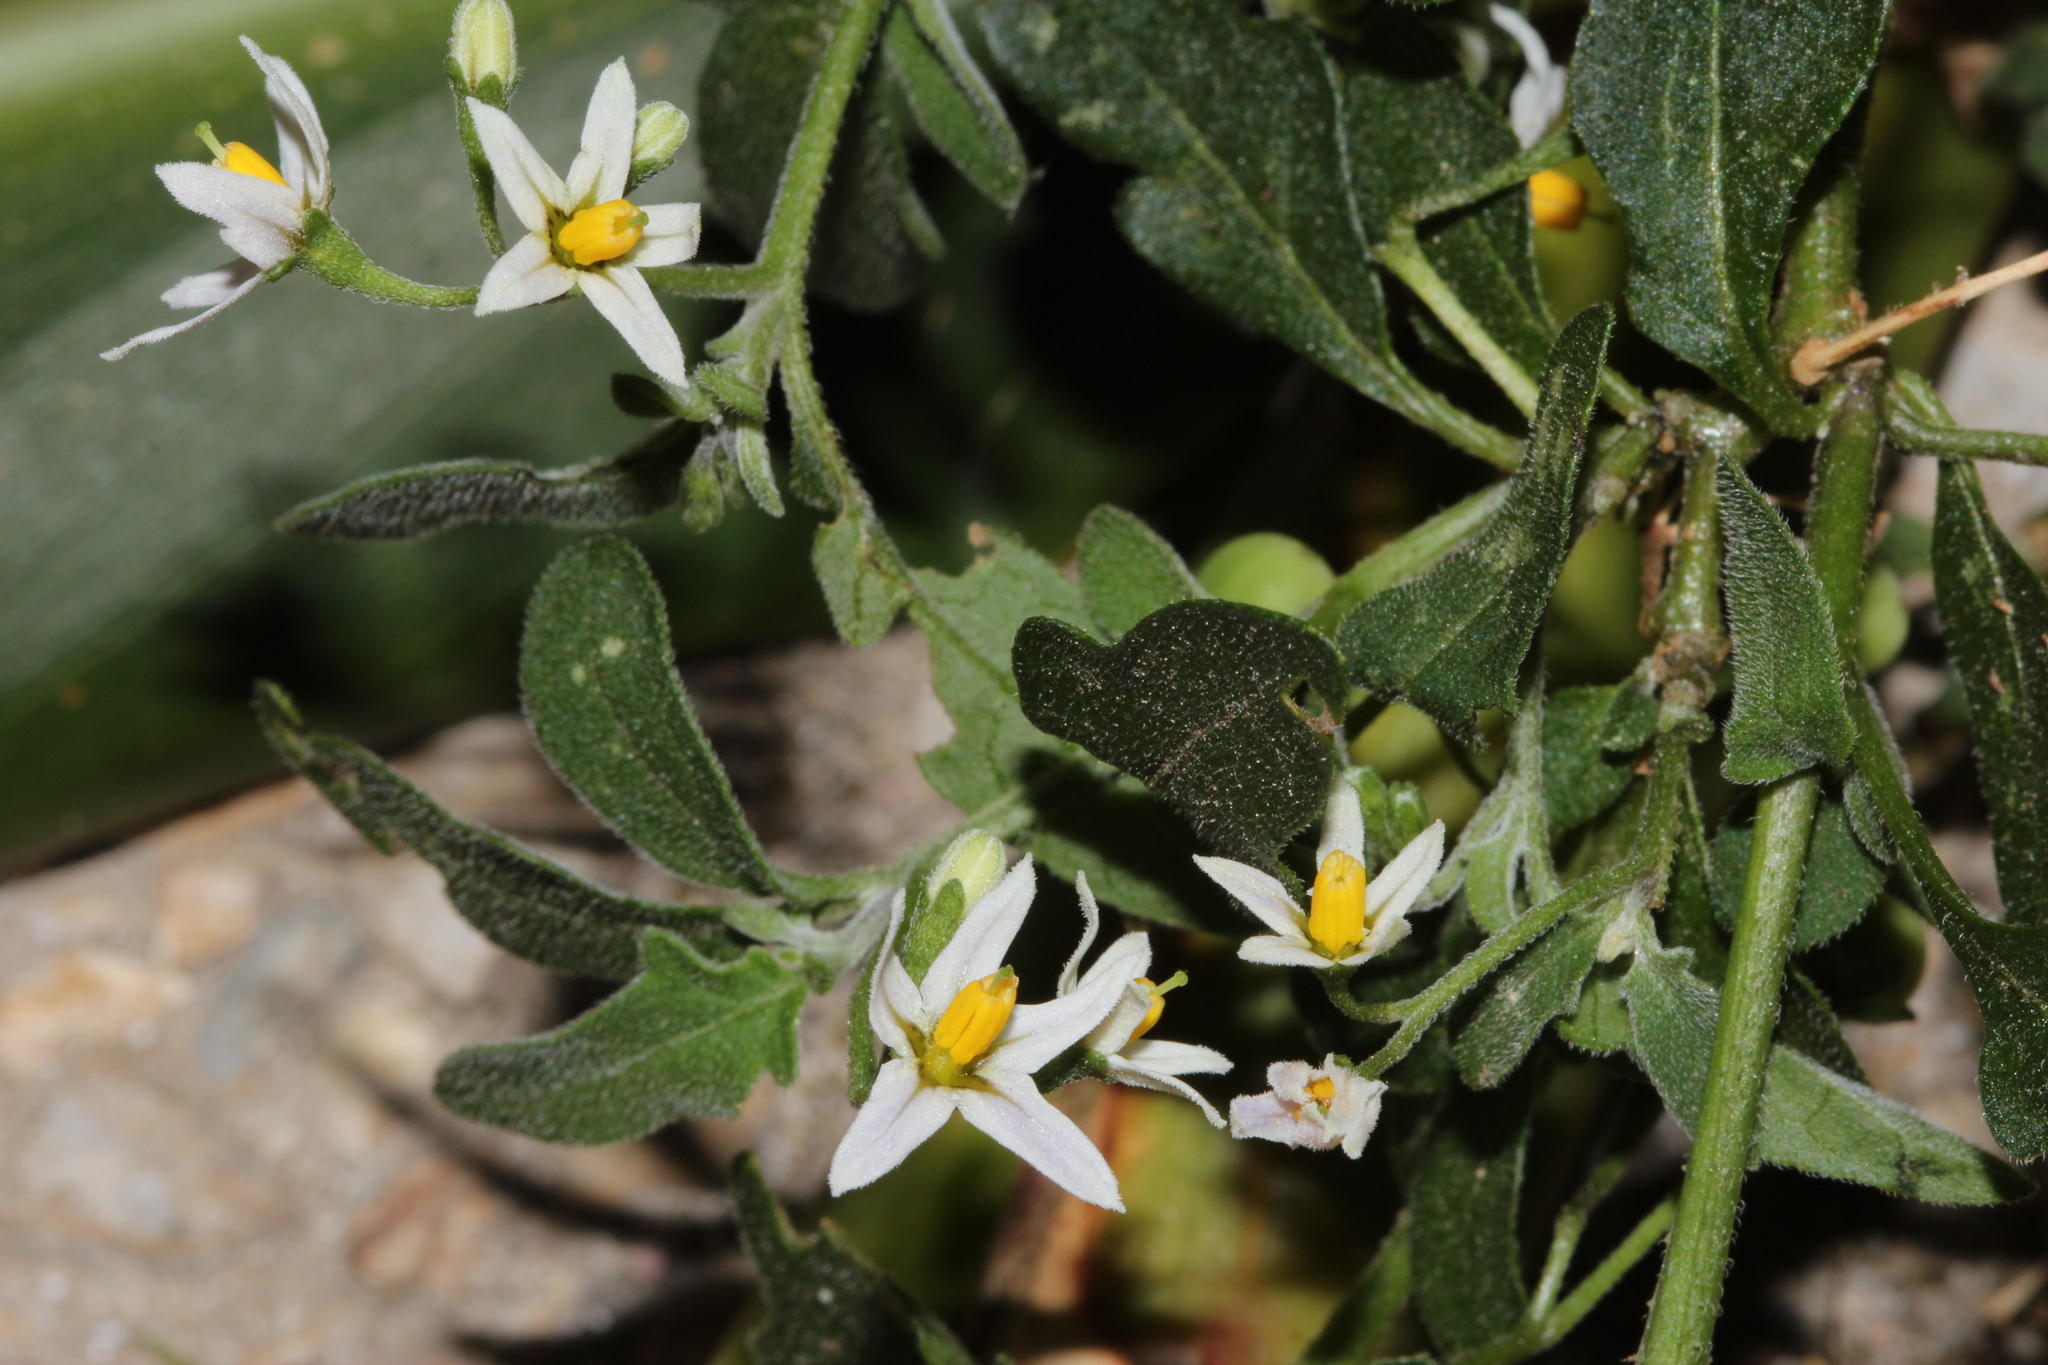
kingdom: Plantae
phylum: Tracheophyta
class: Magnoliopsida
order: Solanales
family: Solanaceae
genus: Solanum
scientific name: Solanum chenopodioides
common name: Tall nightshade
